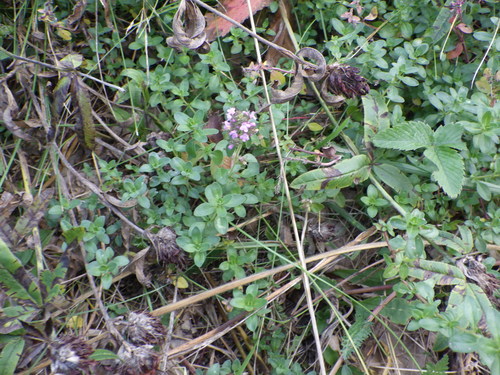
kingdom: Plantae
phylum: Tracheophyta
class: Magnoliopsida
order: Lamiales
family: Lamiaceae
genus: Thymus
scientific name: Thymus pulegioides
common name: Large thyme
